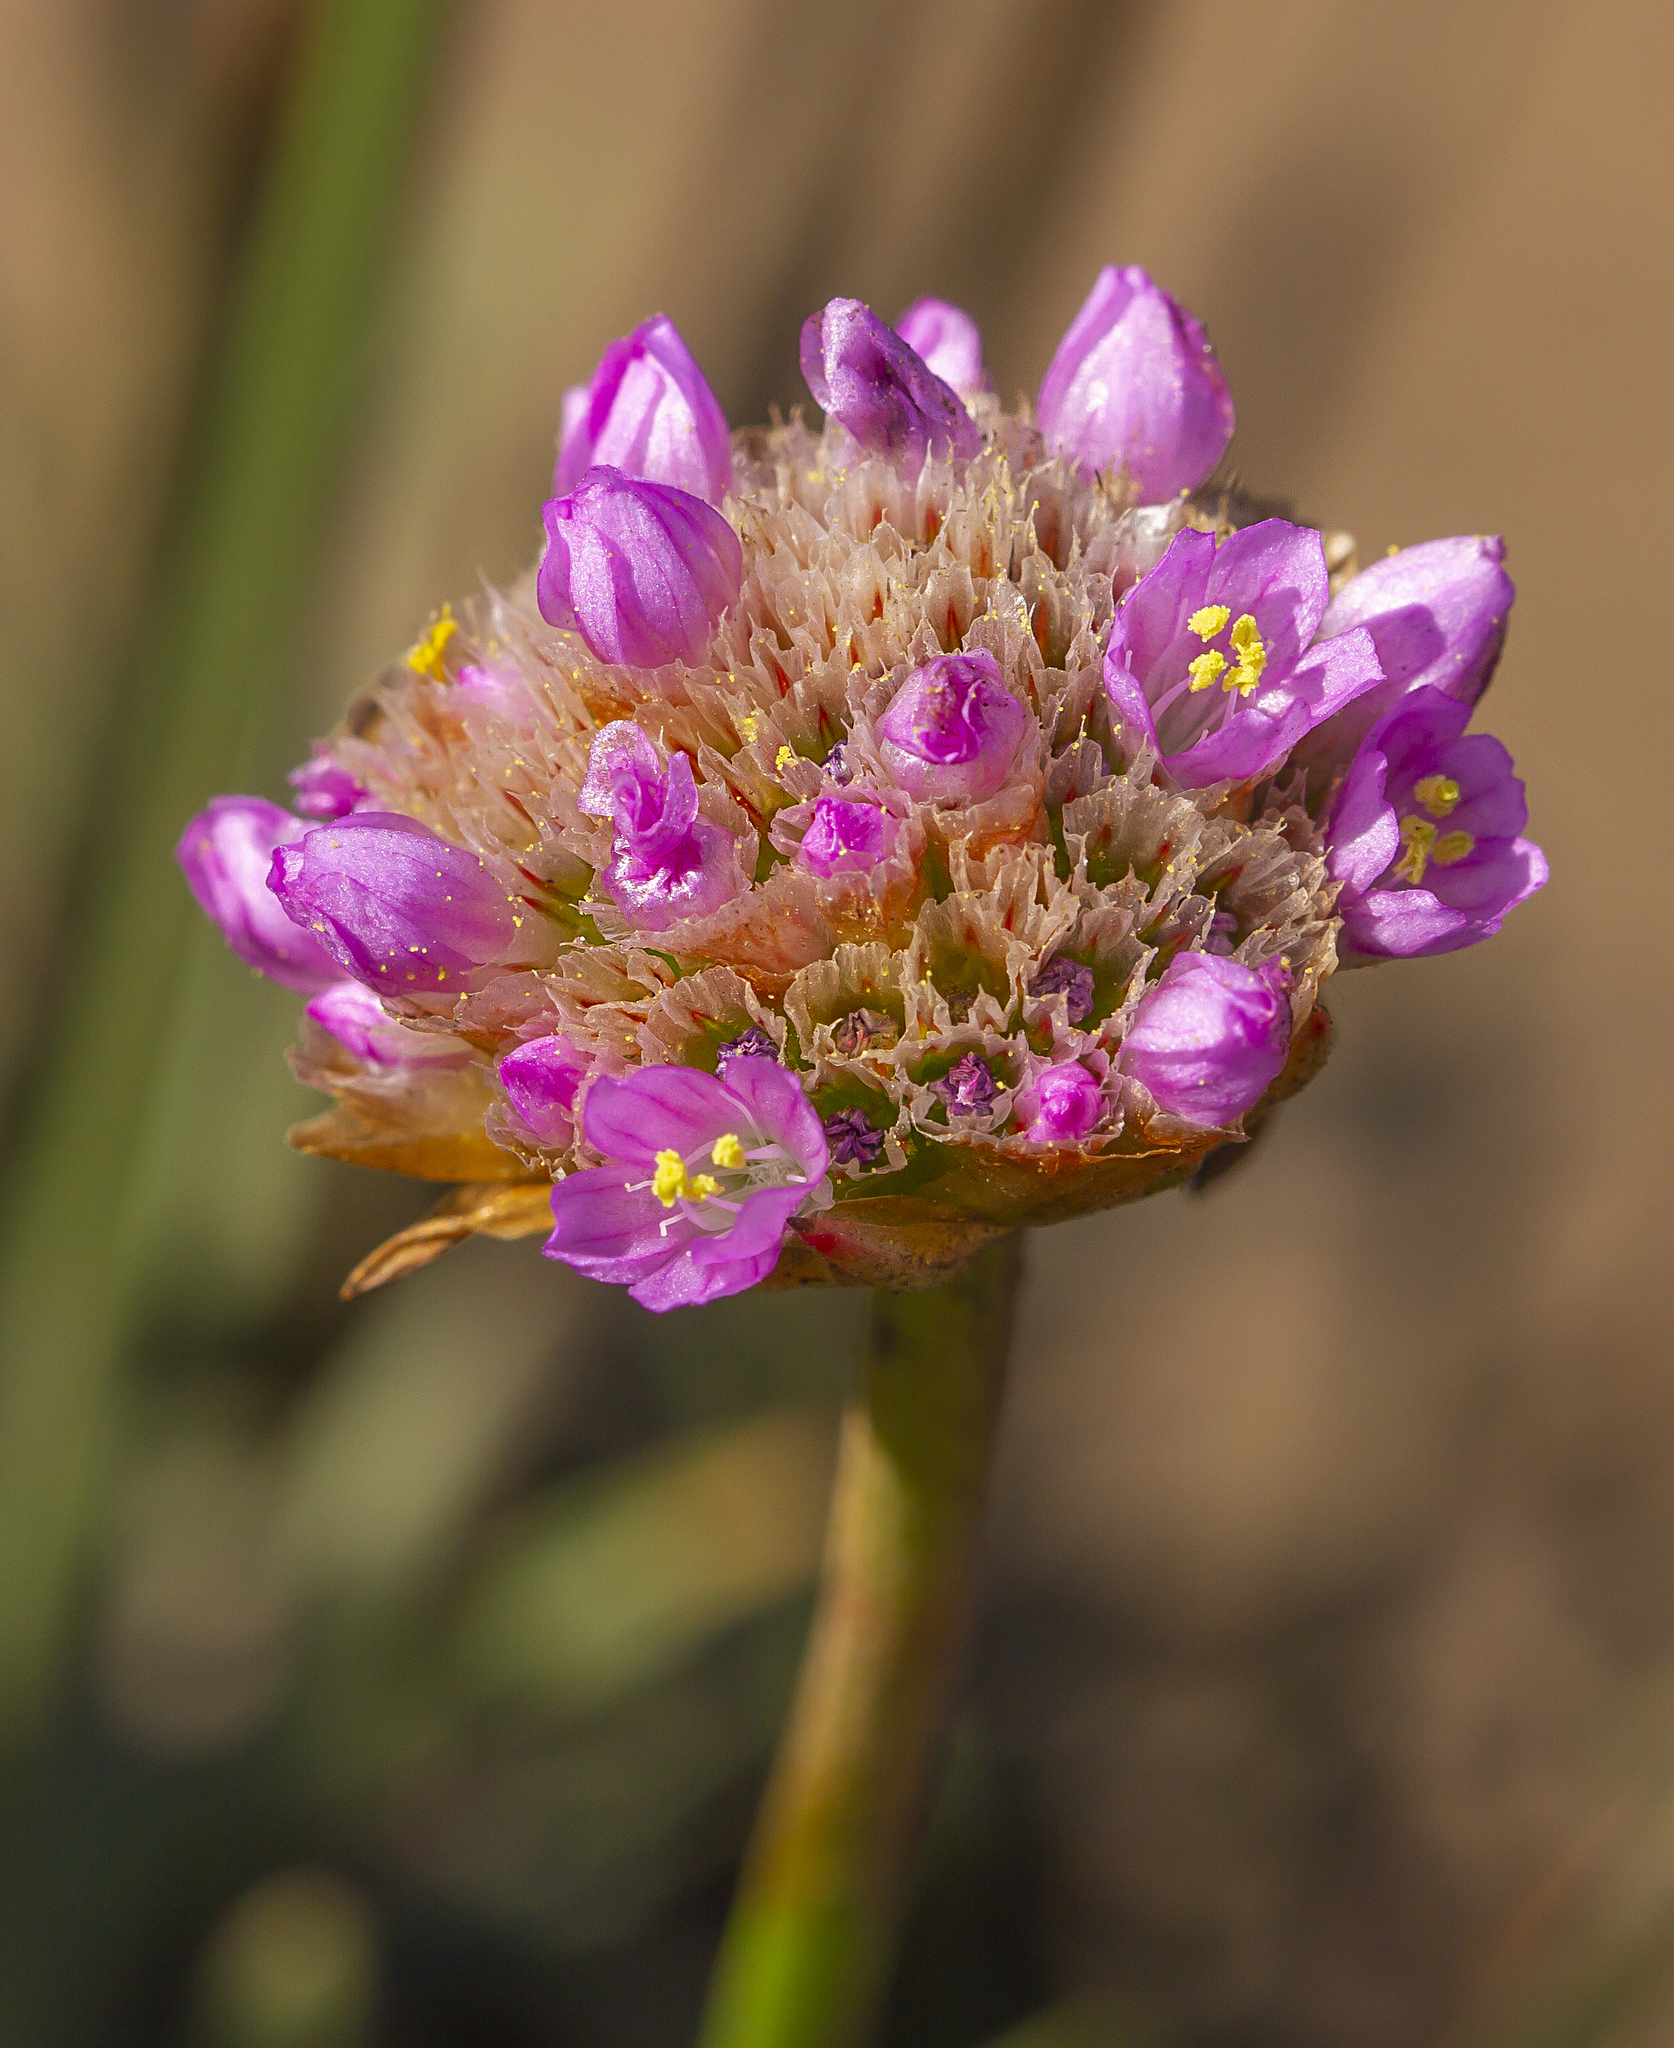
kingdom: Plantae
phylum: Tracheophyta
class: Magnoliopsida
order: Caryophyllales
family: Plumbaginaceae
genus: Armeria
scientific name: Armeria maritima
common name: Thrift
